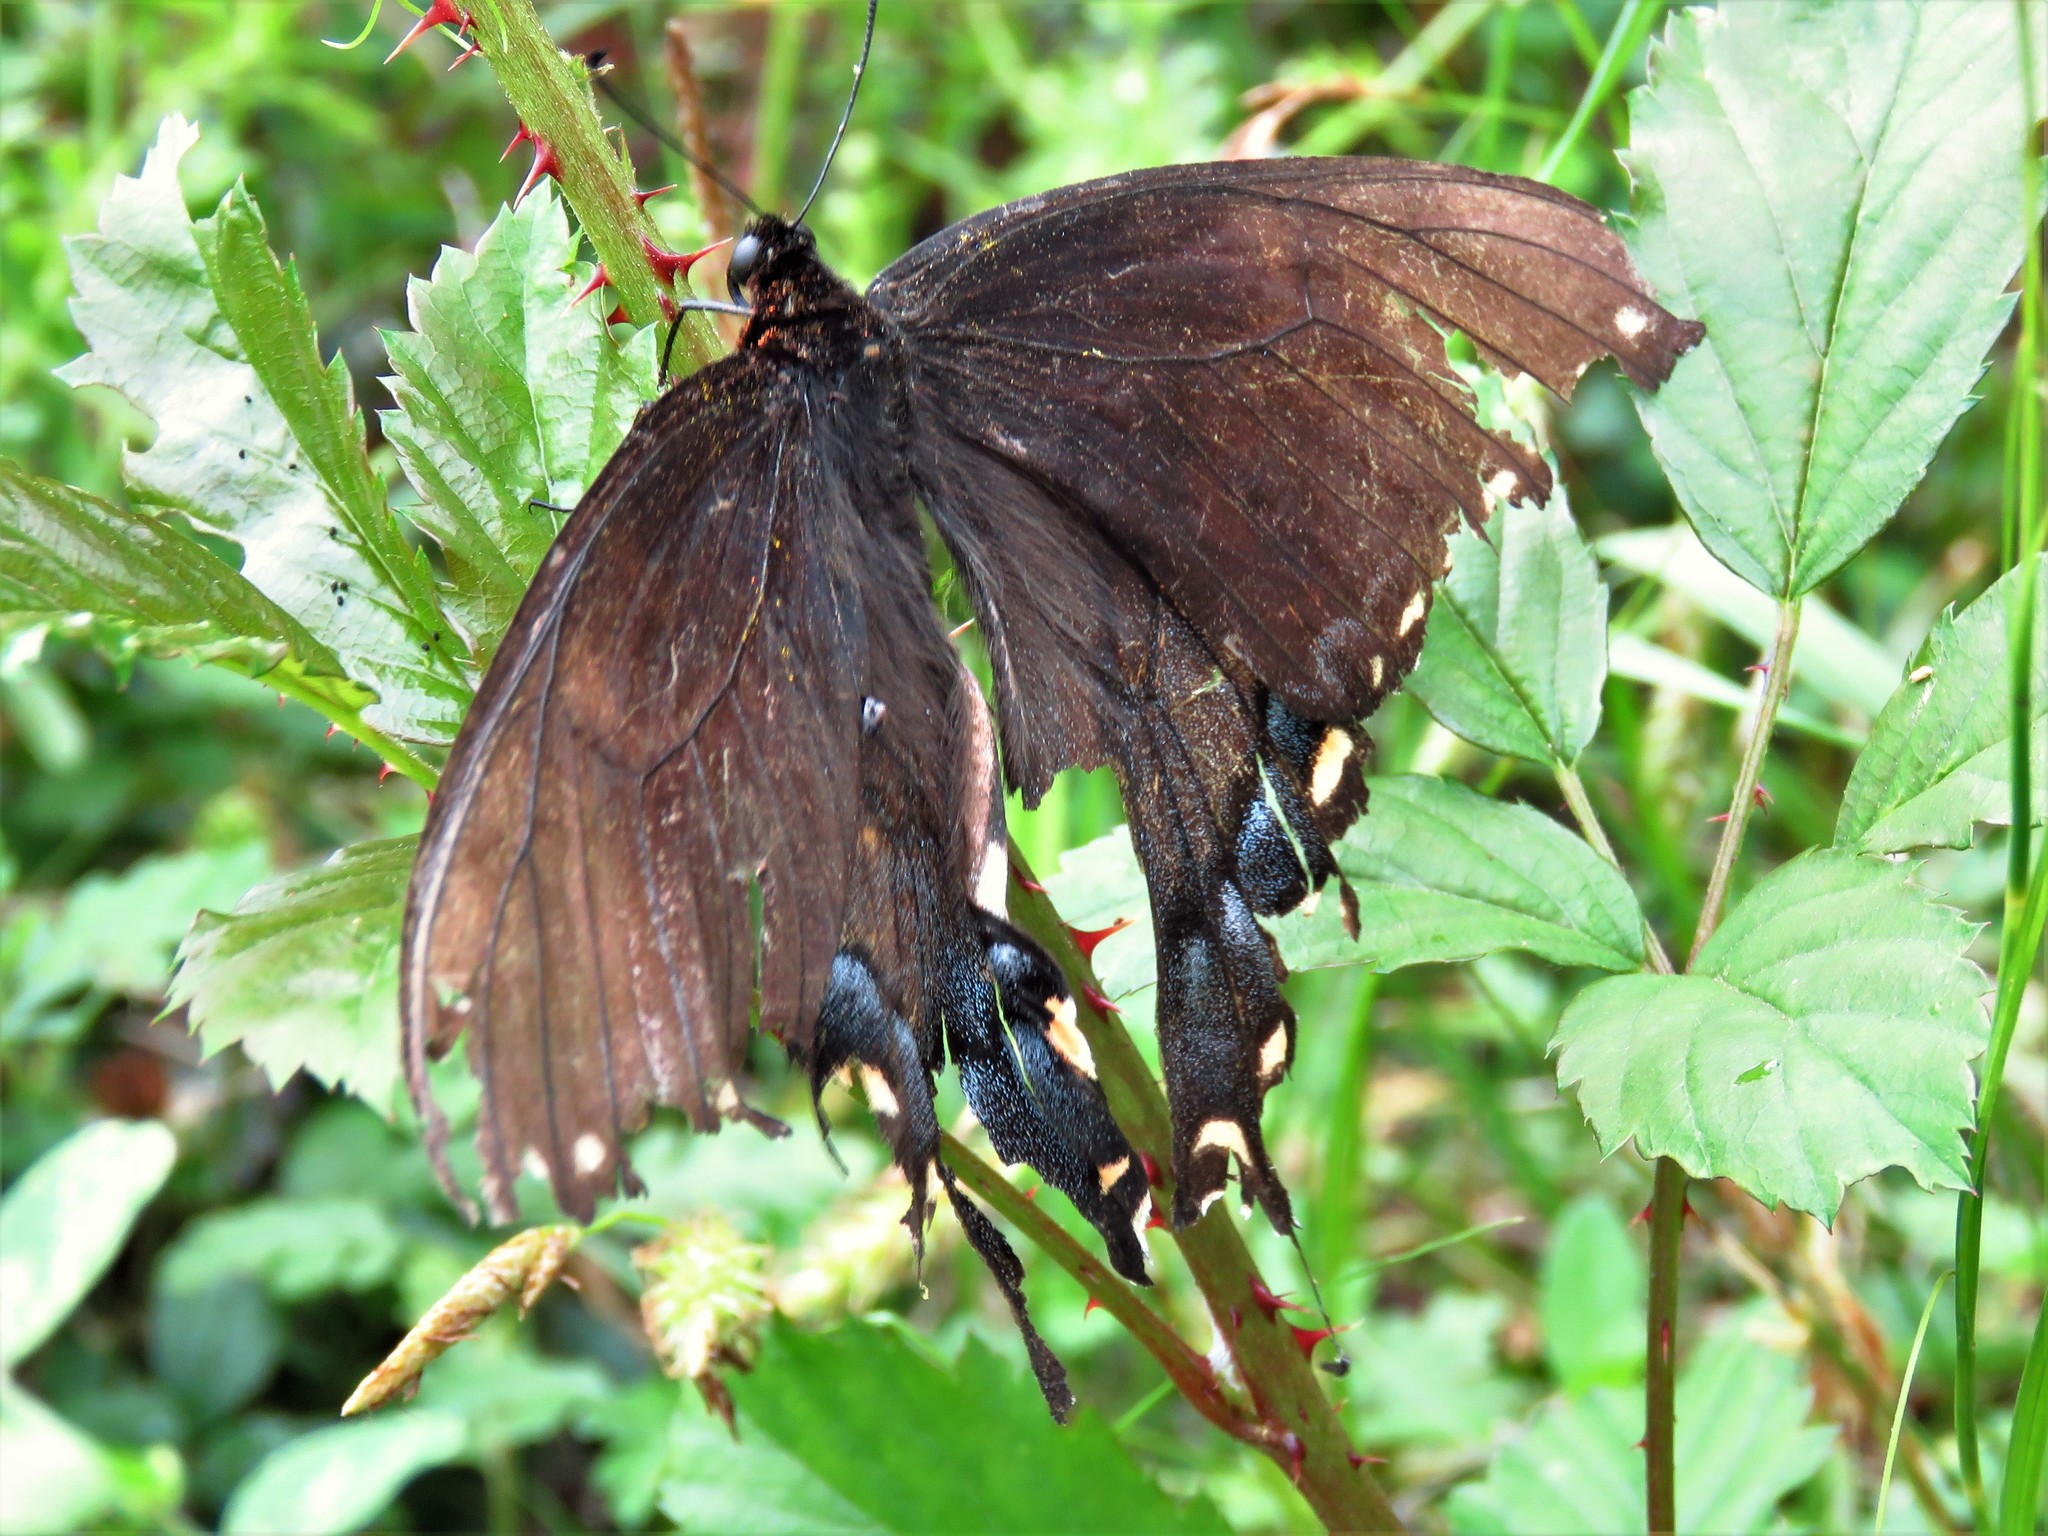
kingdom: Animalia
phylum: Arthropoda
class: Insecta
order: Lepidoptera
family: Papilionidae
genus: Papilio
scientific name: Papilio glaucus
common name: Tiger swallowtail
